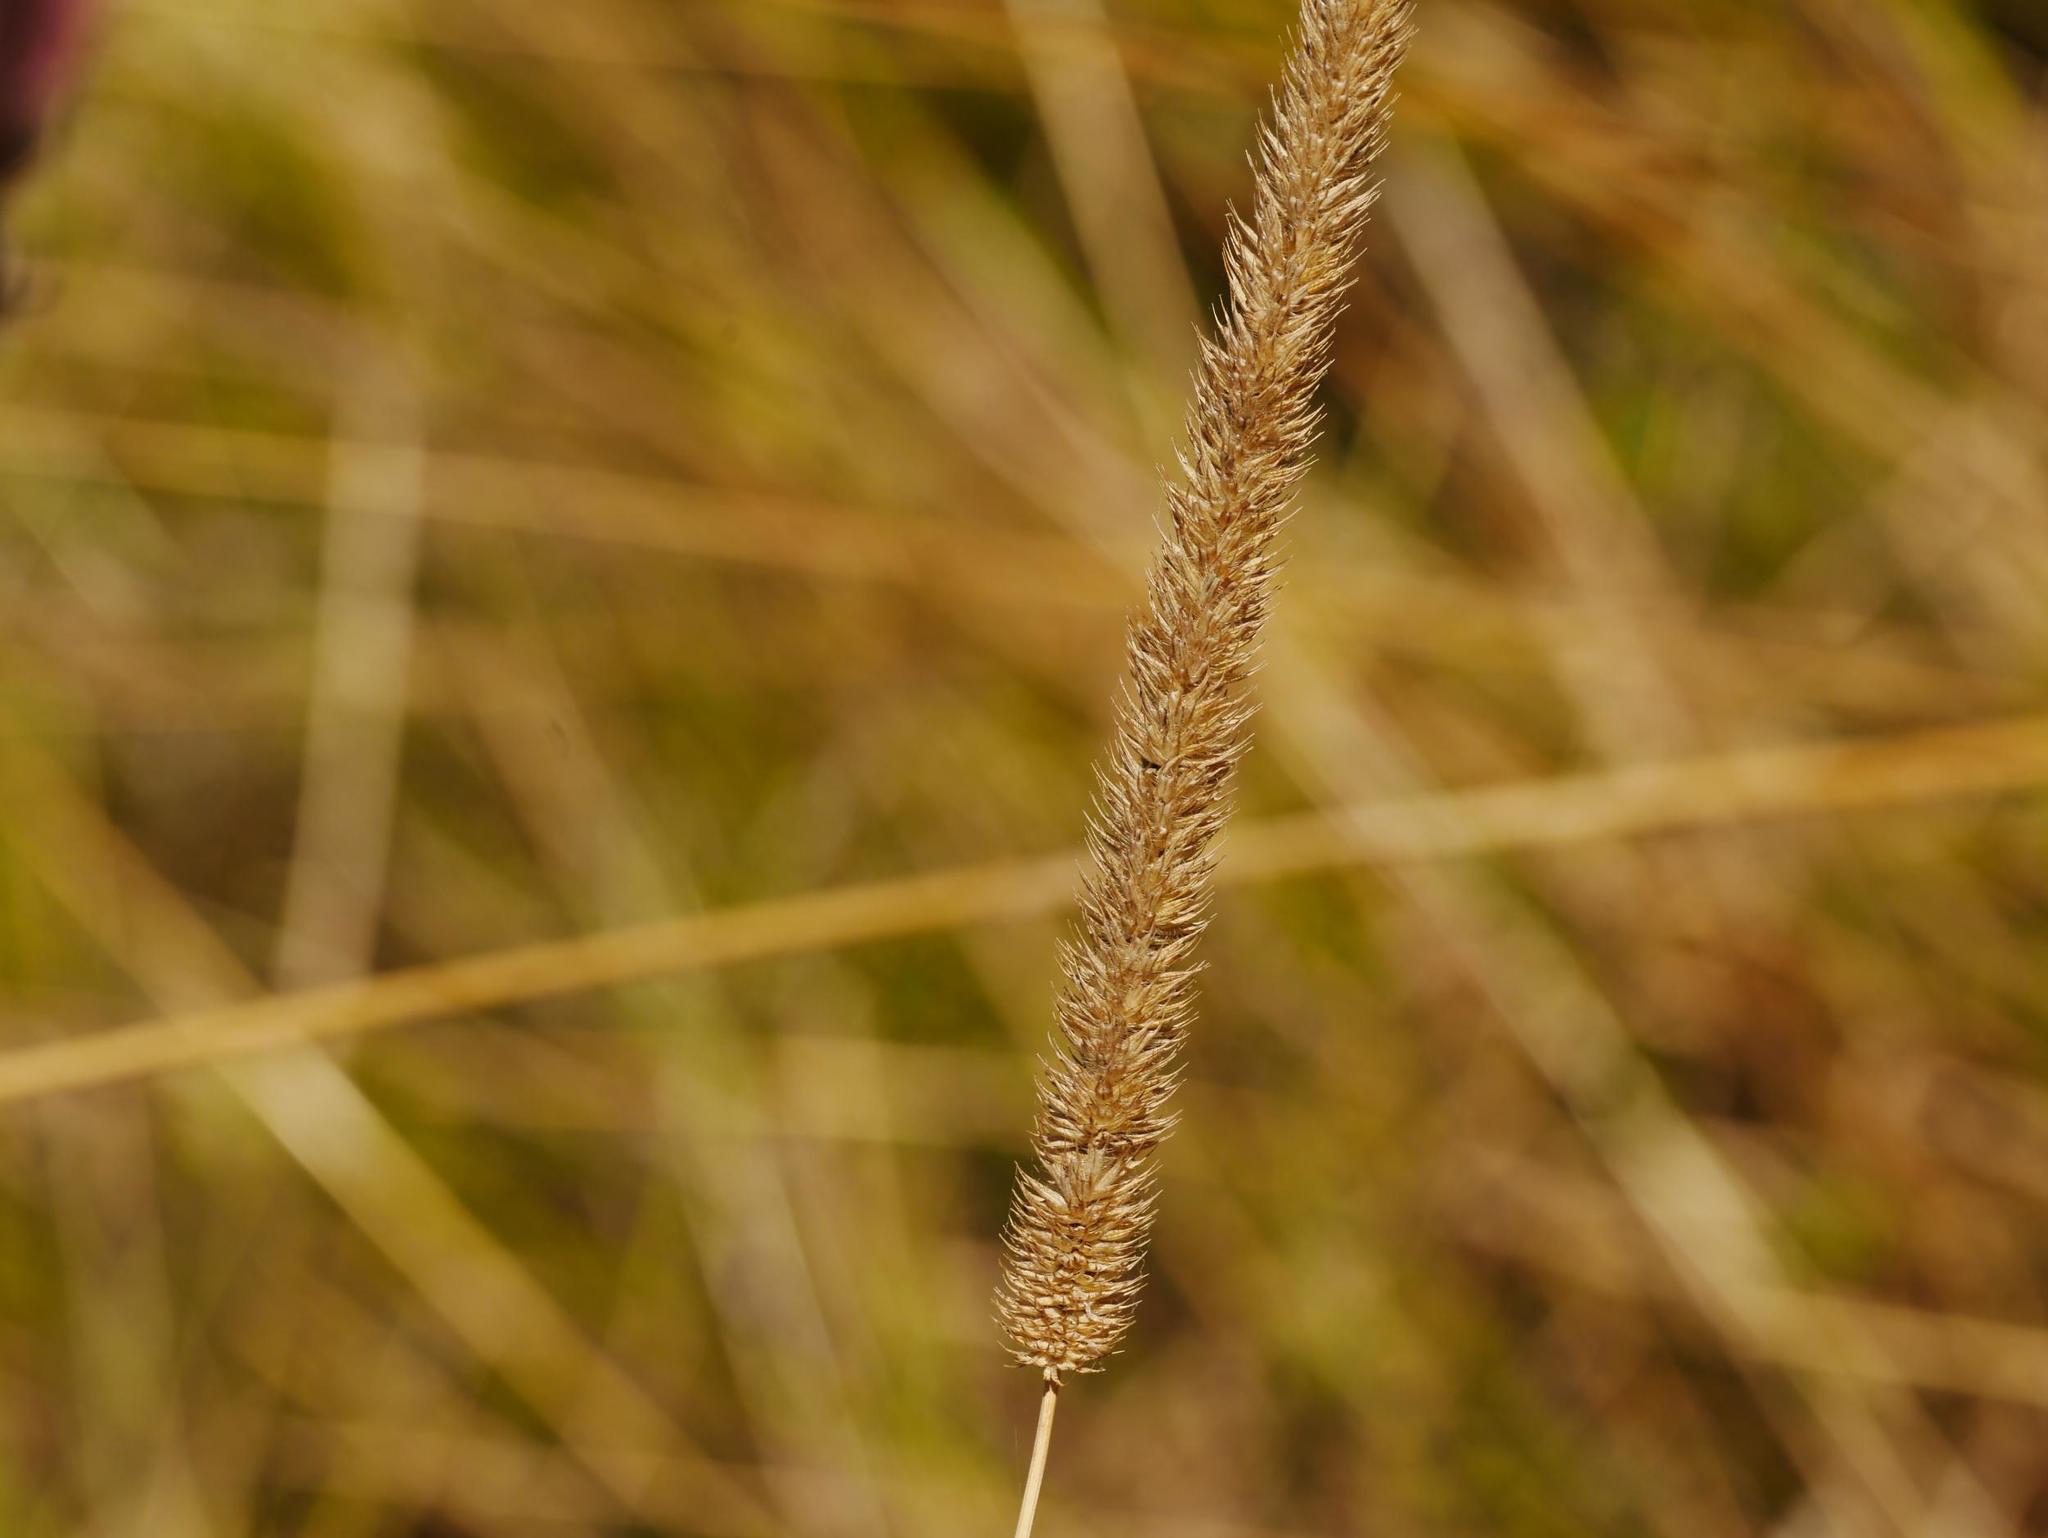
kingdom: Plantae
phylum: Tracheophyta
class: Liliopsida
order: Poales
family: Poaceae
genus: Phleum
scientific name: Phleum pratense
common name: Timothy grass
